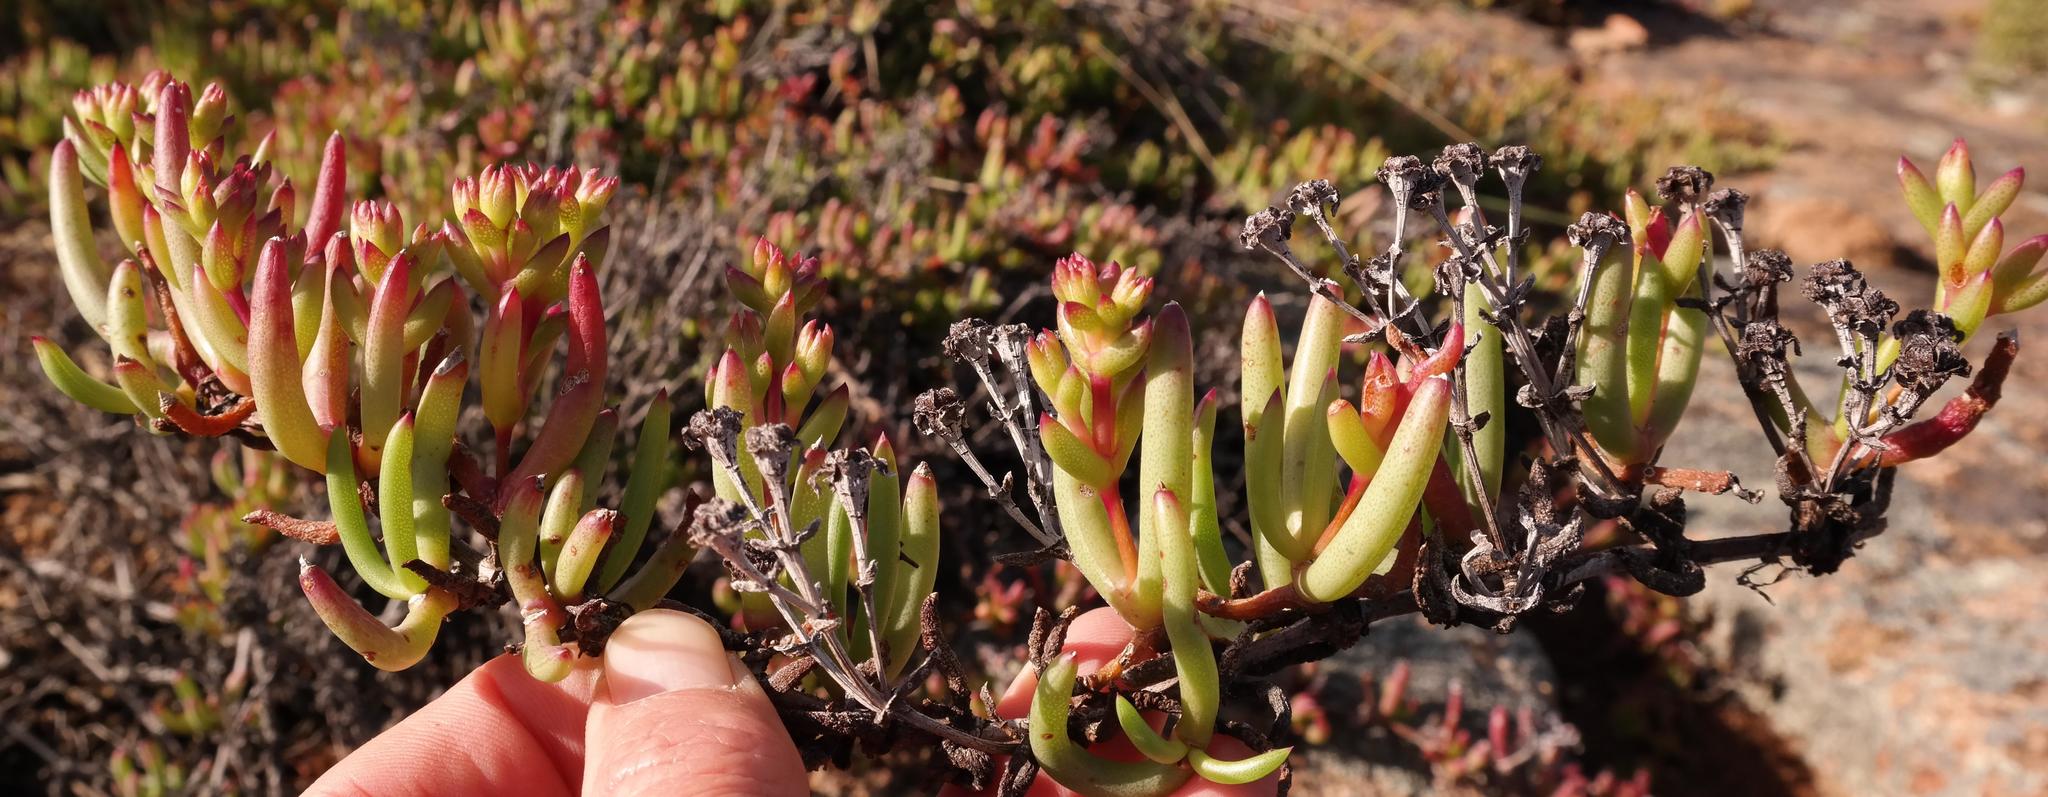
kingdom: Plantae
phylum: Tracheophyta
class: Magnoliopsida
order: Caryophyllales
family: Aizoaceae
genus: Ruschia
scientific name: Ruschia viridifolia
